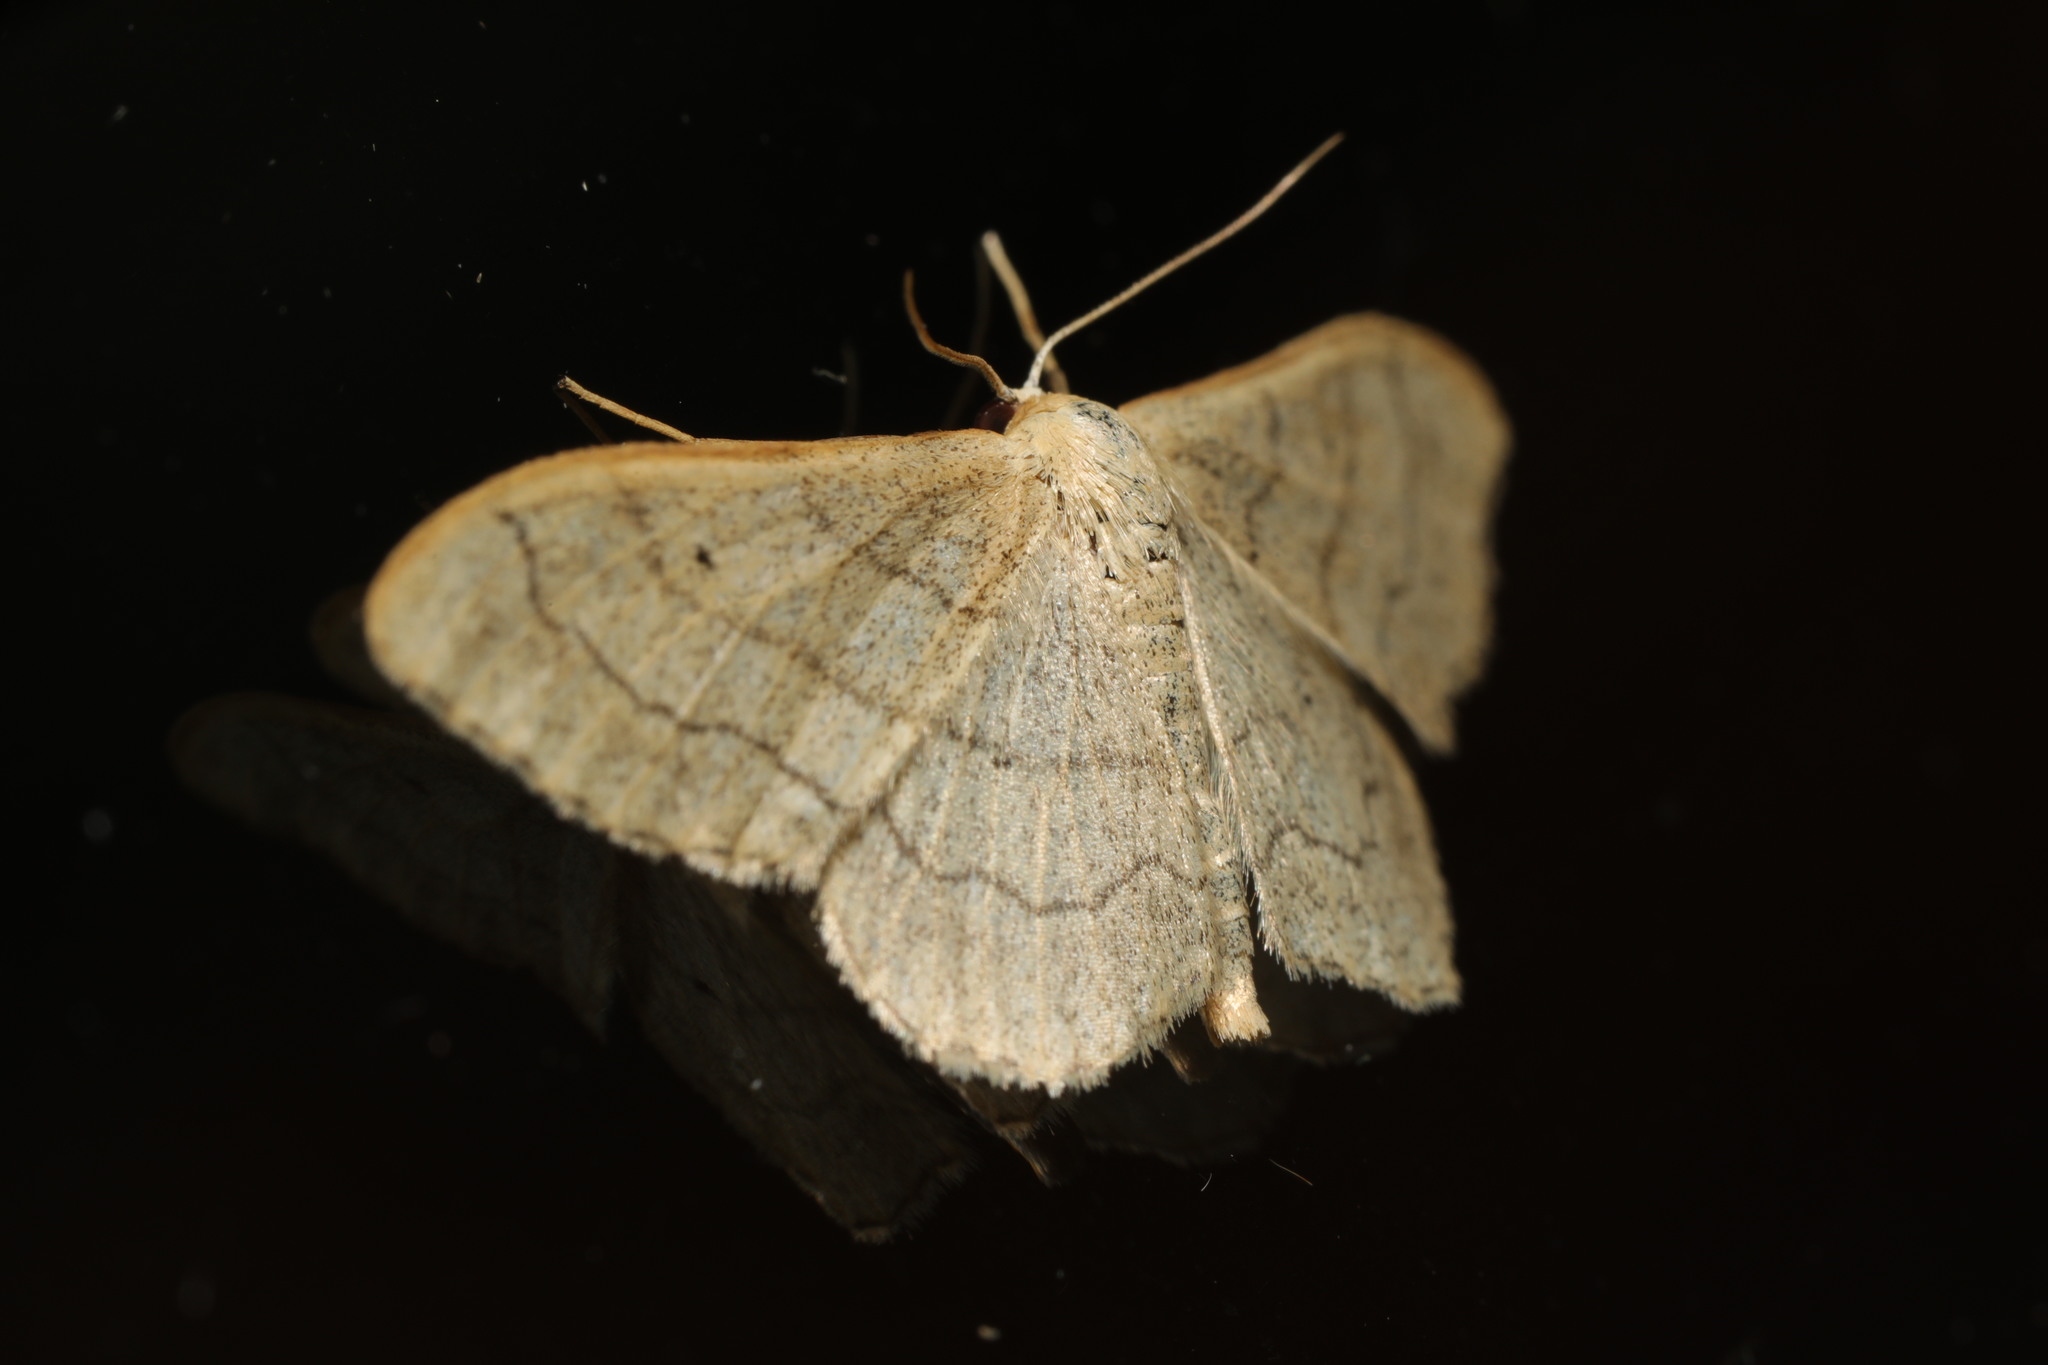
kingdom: Animalia
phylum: Arthropoda
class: Insecta
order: Lepidoptera
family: Geometridae
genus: Idaea
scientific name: Idaea aversata
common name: Riband wave
